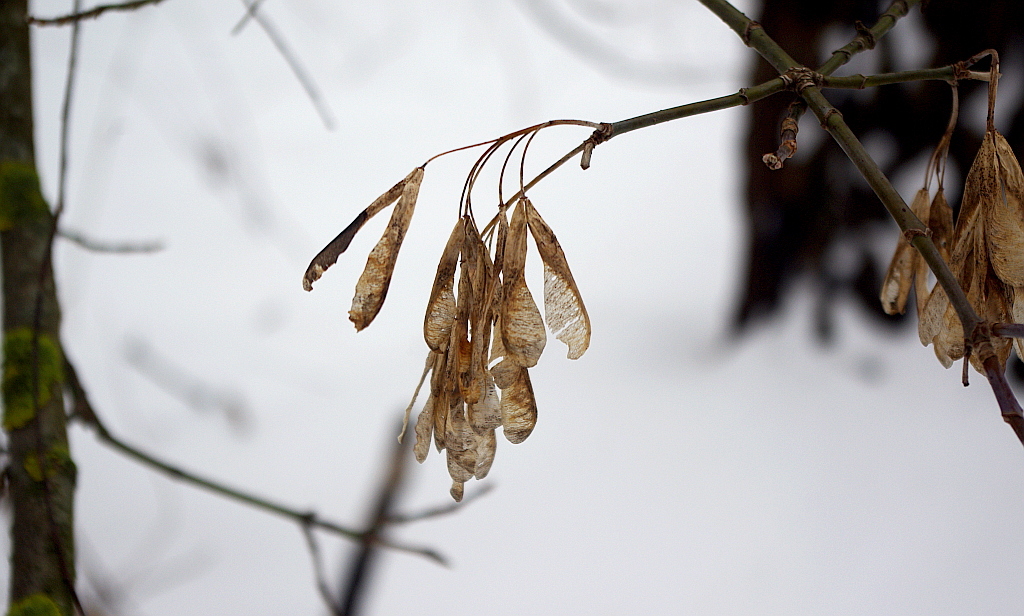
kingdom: Plantae
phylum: Tracheophyta
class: Magnoliopsida
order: Sapindales
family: Sapindaceae
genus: Acer
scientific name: Acer negundo
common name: Ashleaf maple
